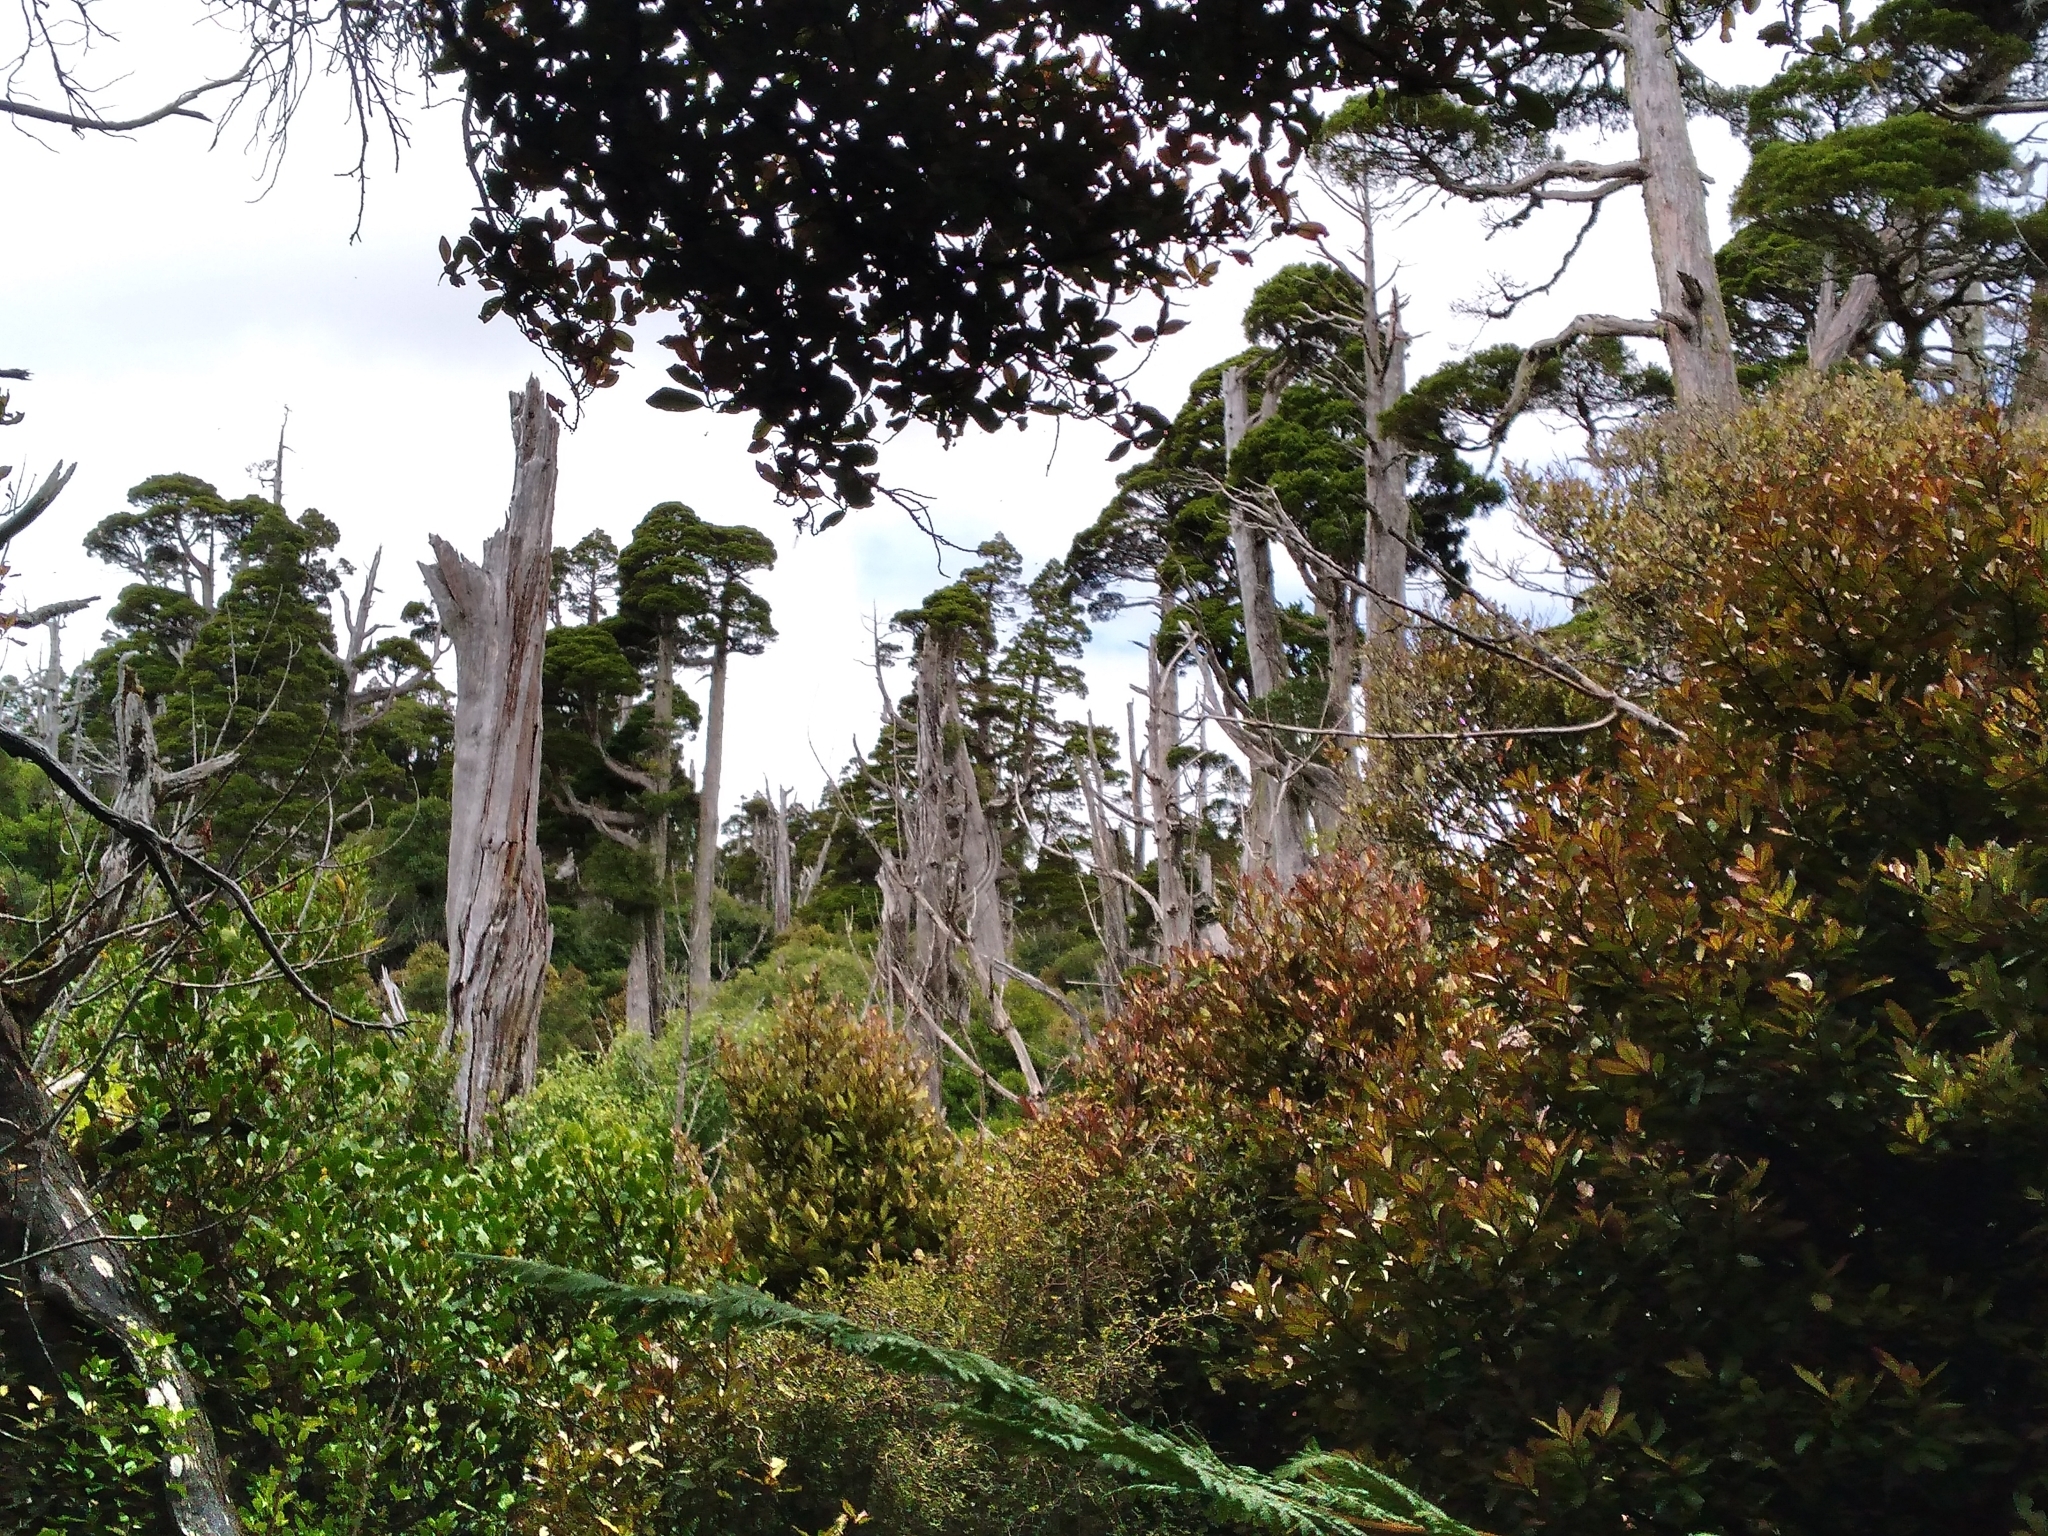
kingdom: Plantae
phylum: Tracheophyta
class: Pinopsida
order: Pinales
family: Cupressaceae
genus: Libocedrus
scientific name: Libocedrus bidwillii
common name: Cedar
